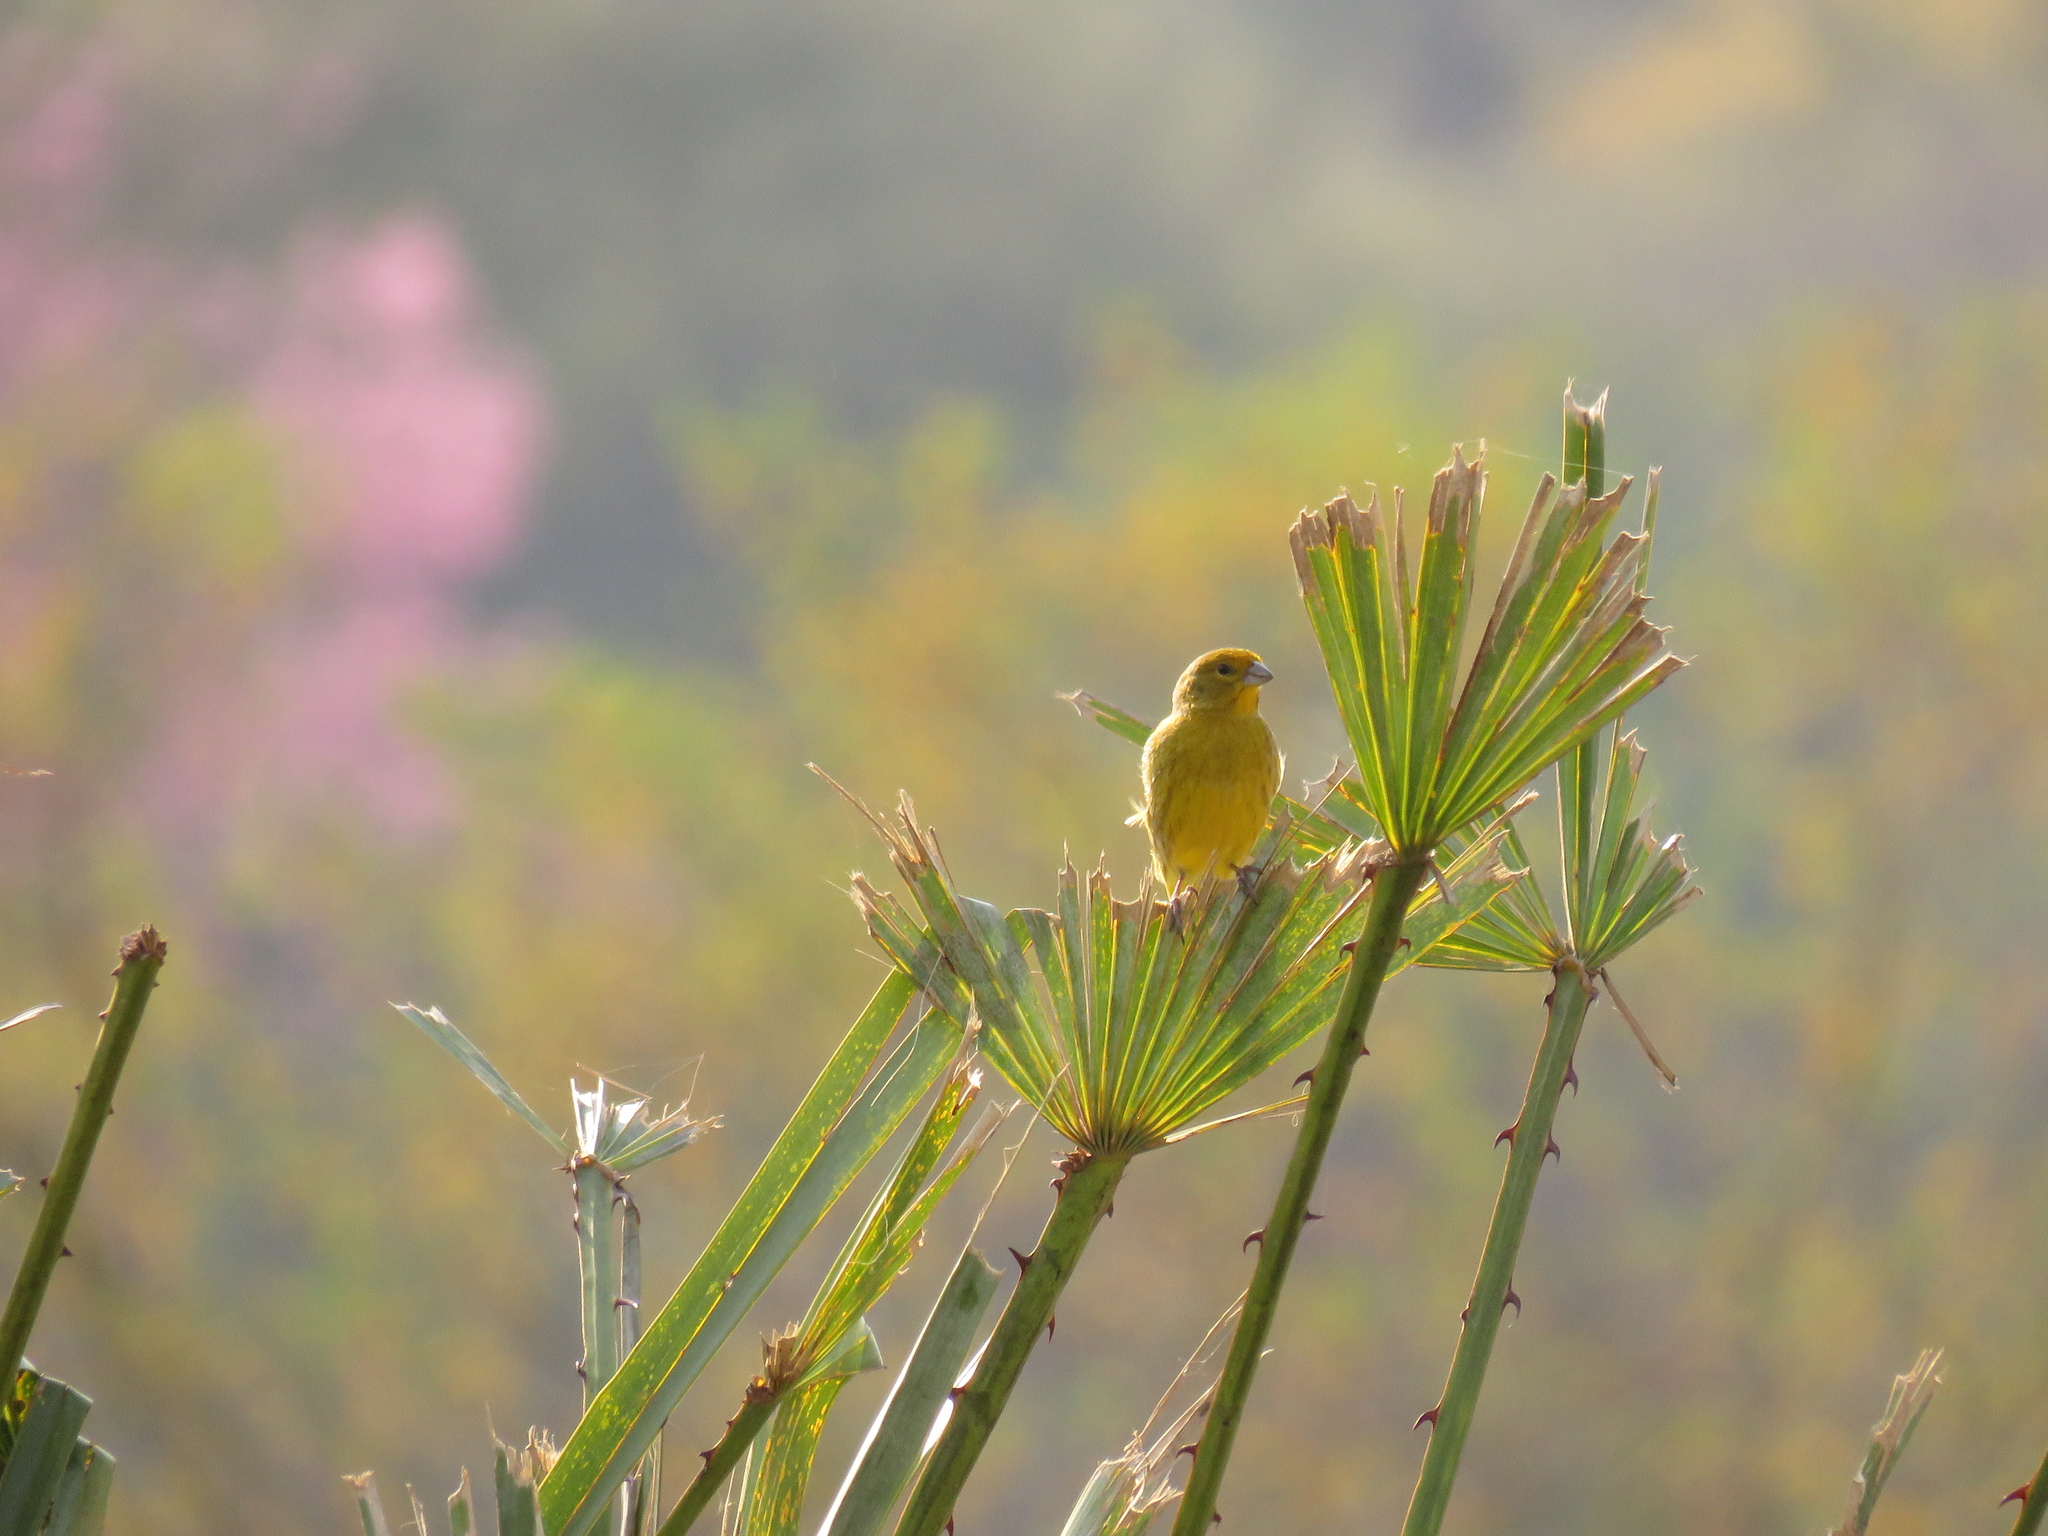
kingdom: Animalia
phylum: Chordata
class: Aves
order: Passeriformes
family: Thraupidae
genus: Sicalis
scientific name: Sicalis flaveola
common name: Saffron finch
